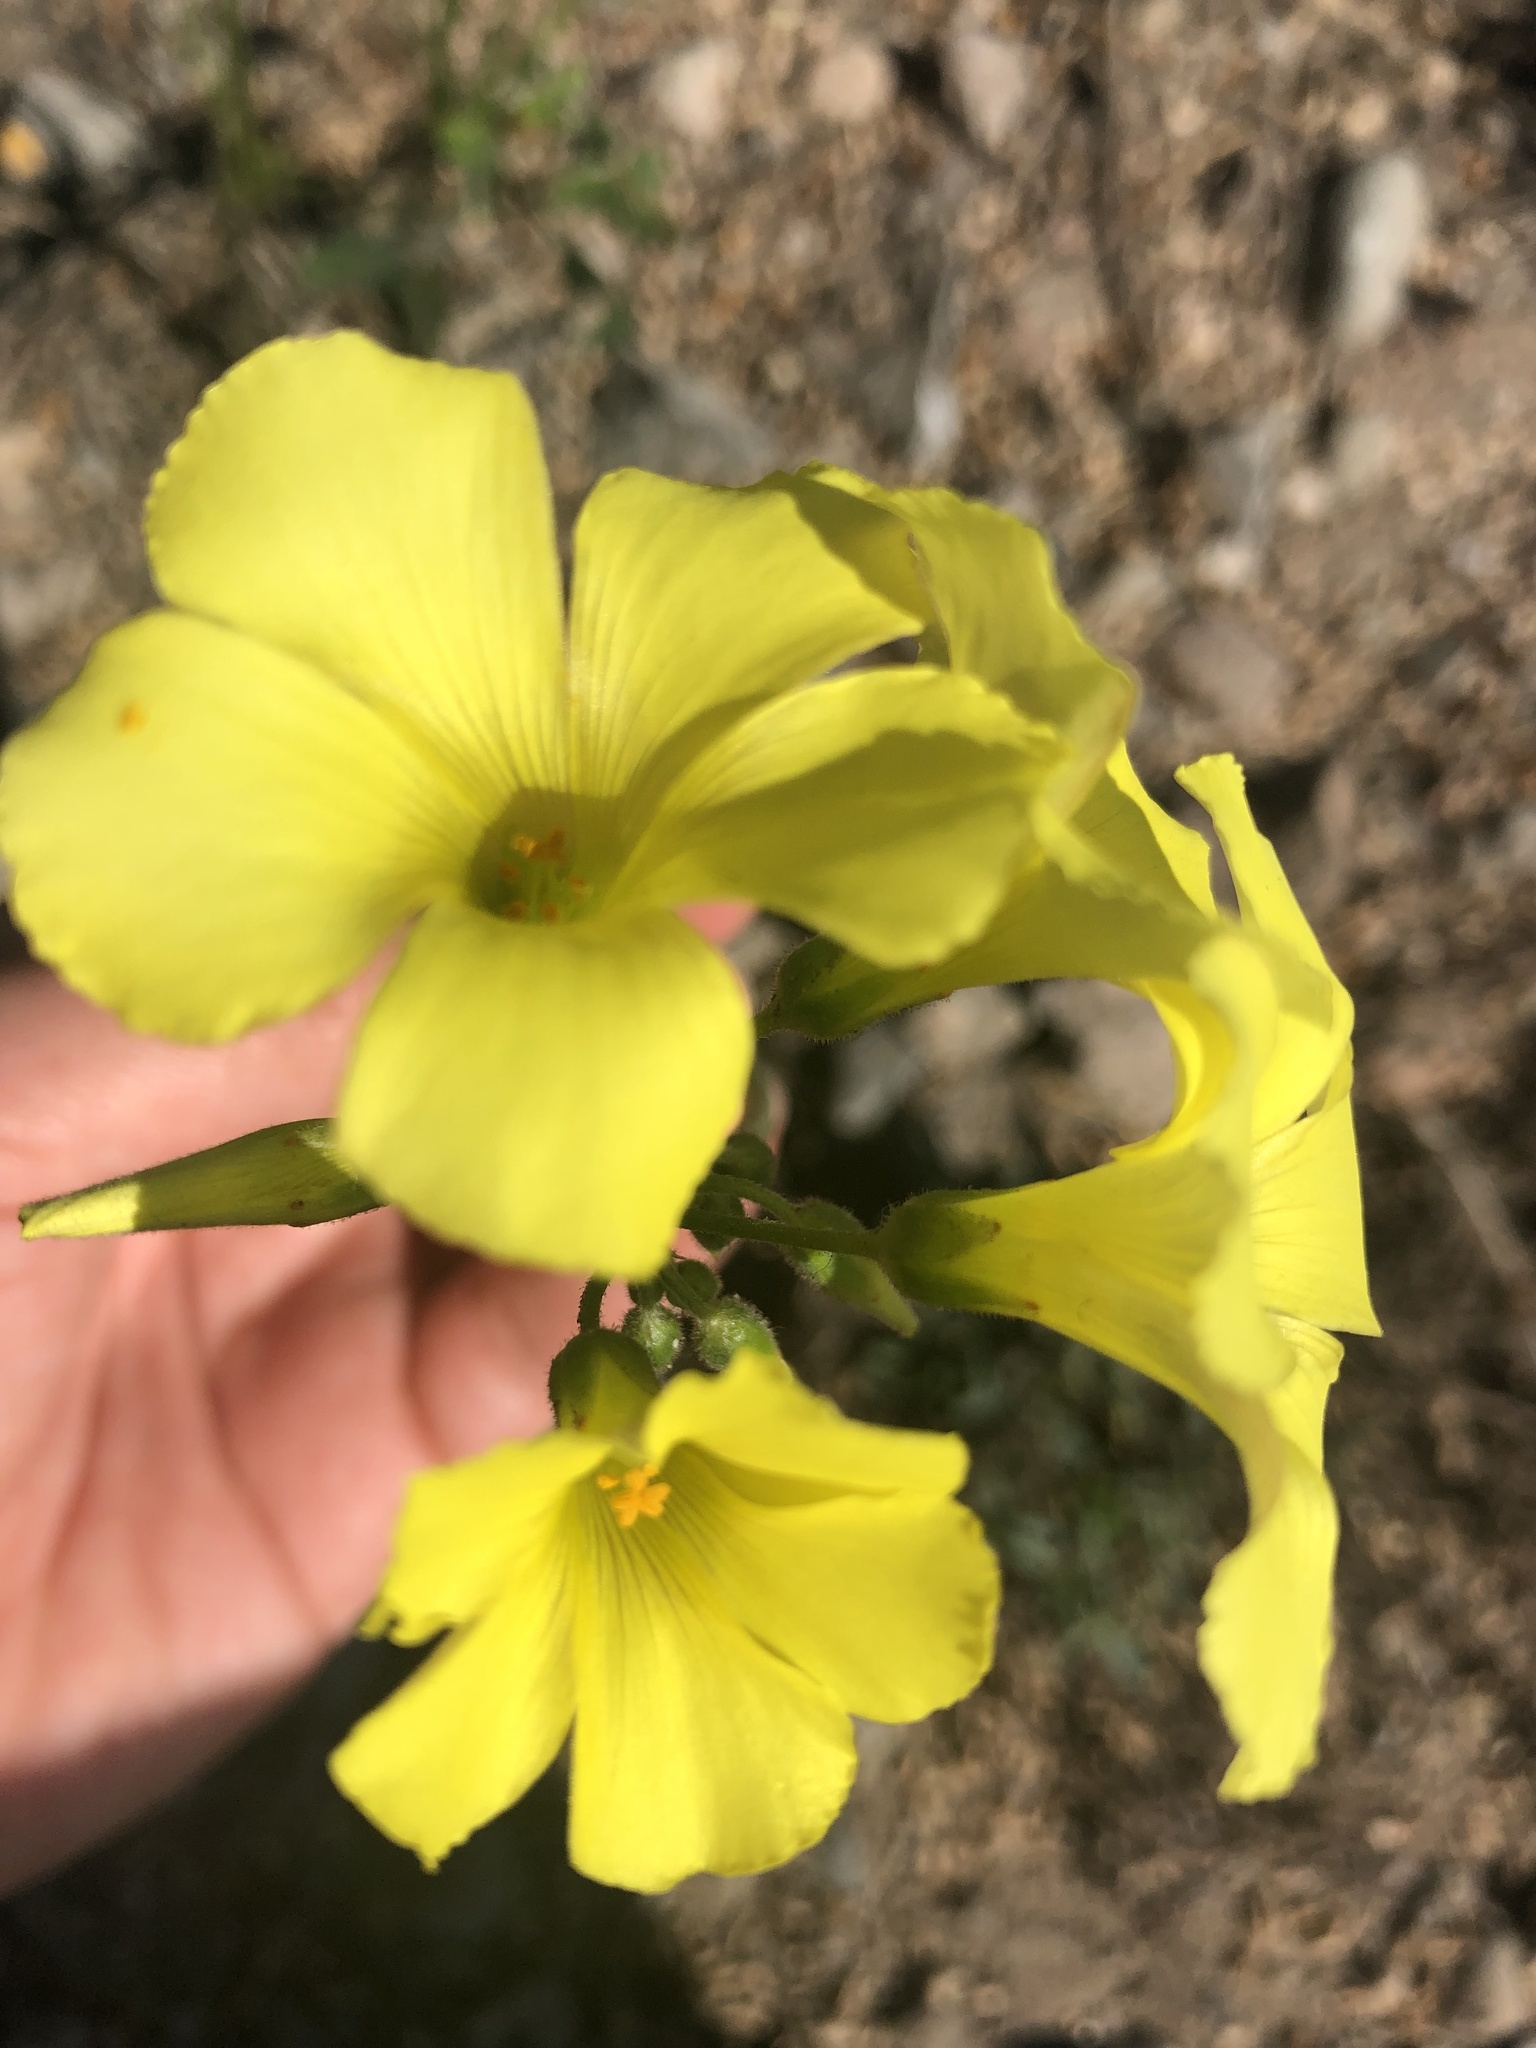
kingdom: Plantae
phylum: Tracheophyta
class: Magnoliopsida
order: Oxalidales
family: Oxalidaceae
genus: Oxalis
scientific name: Oxalis pes-caprae
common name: Bermuda-buttercup
